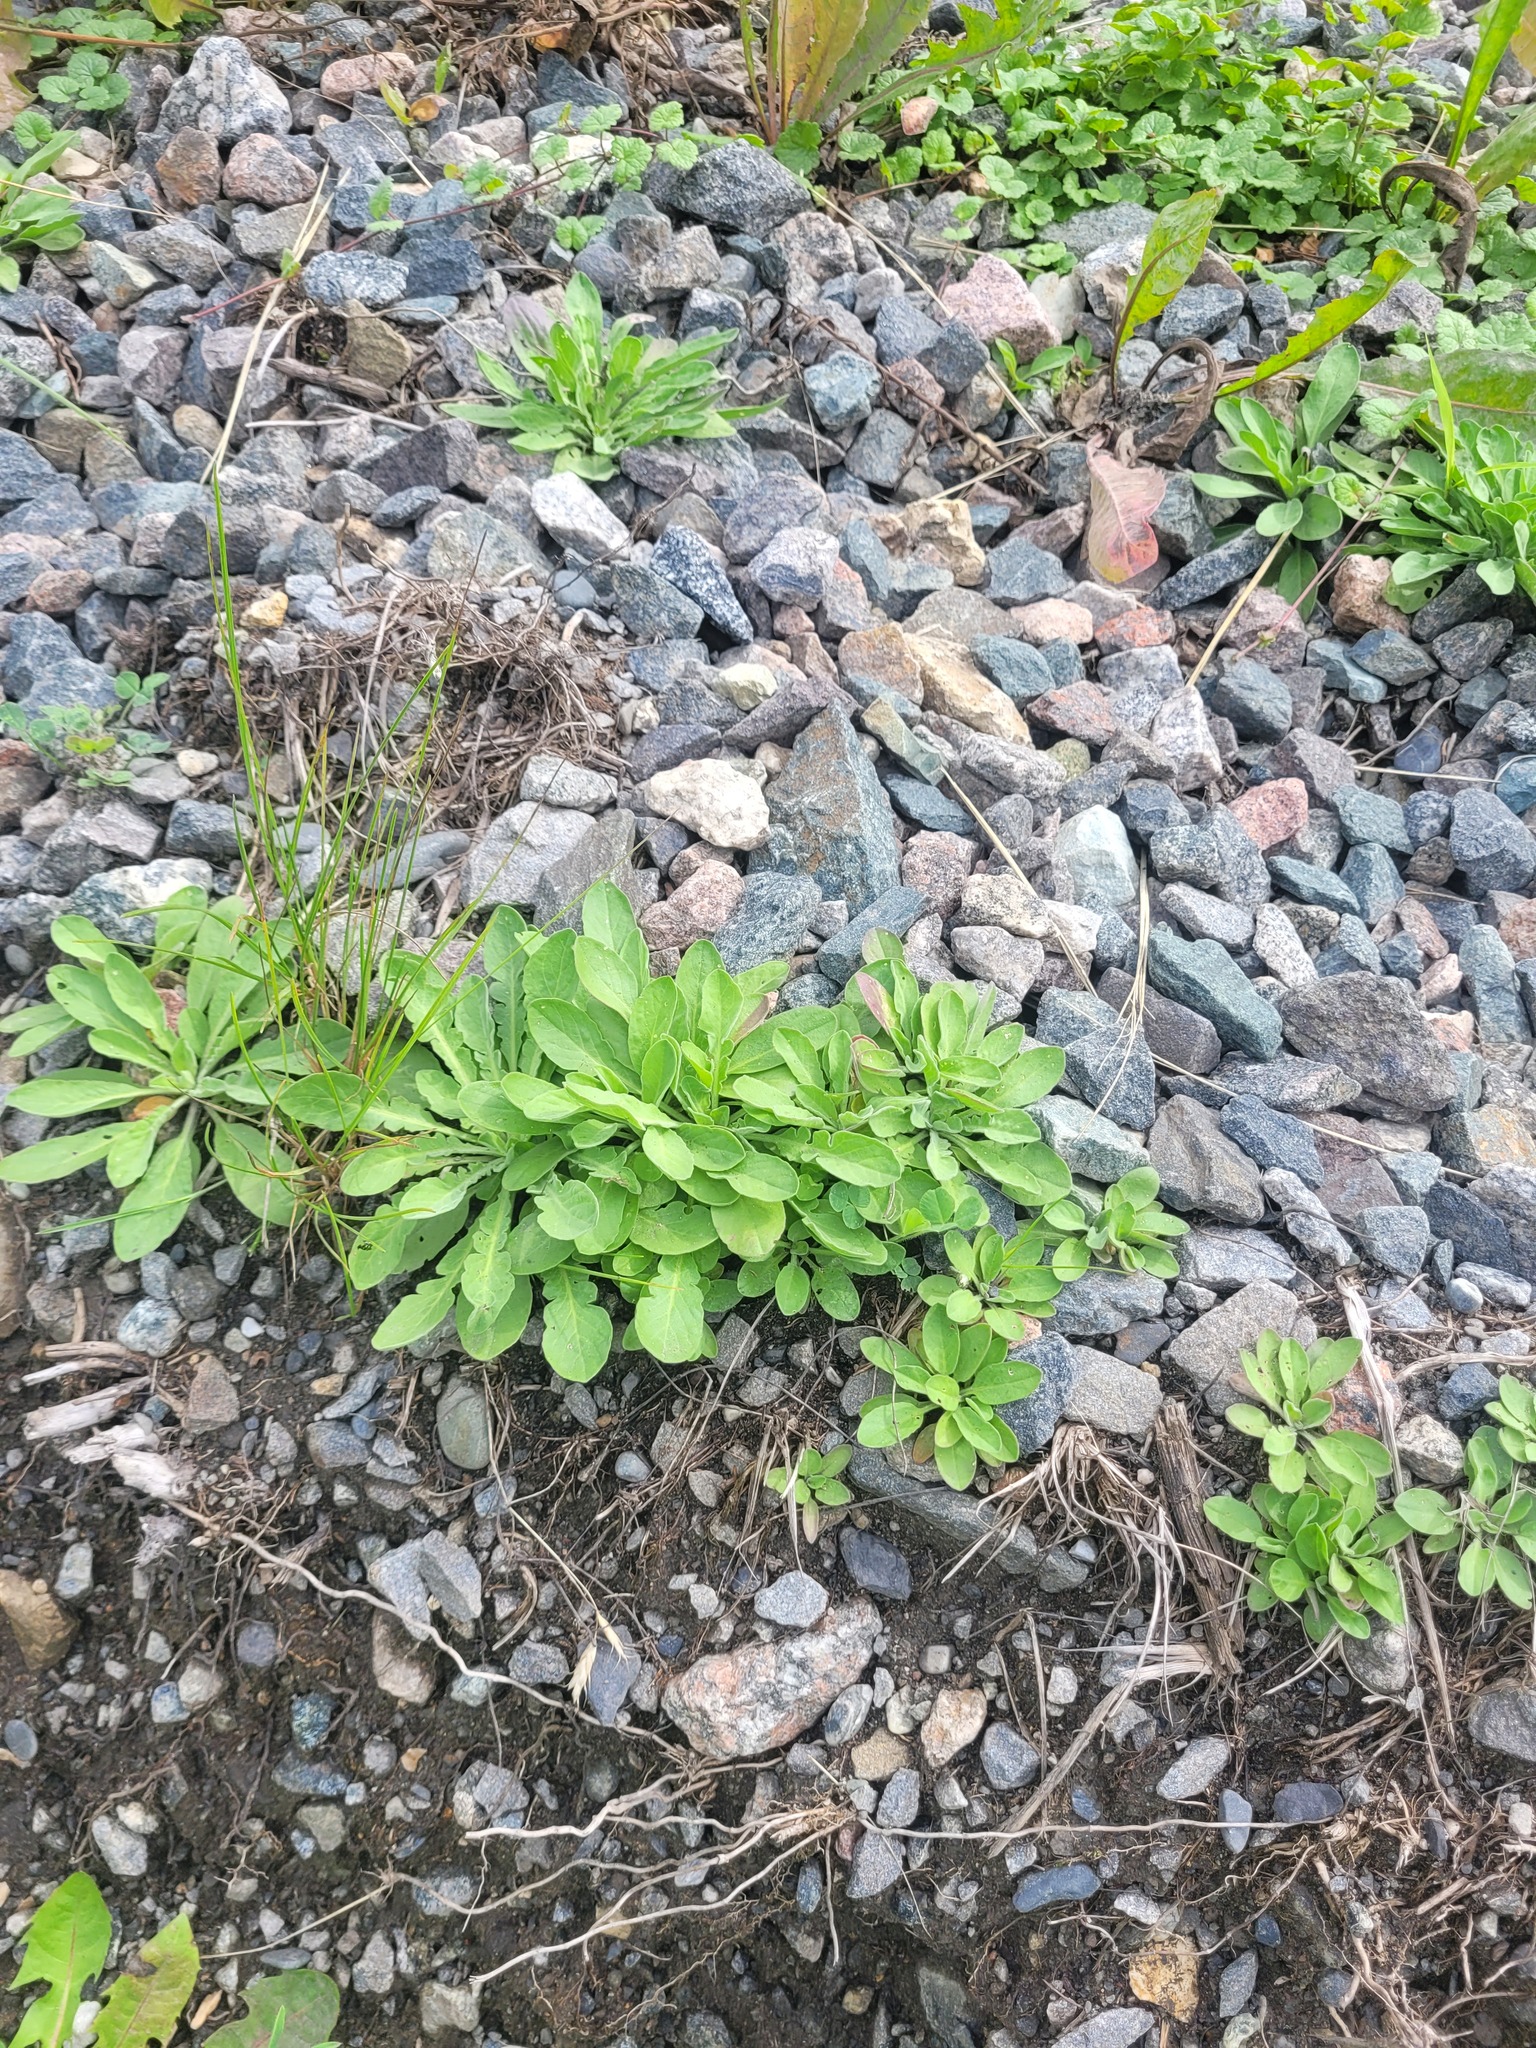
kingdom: Plantae
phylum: Tracheophyta
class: Magnoliopsida
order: Brassicales
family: Brassicaceae
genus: Lepidium
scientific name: Lepidium campestre
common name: Field pepperwort
